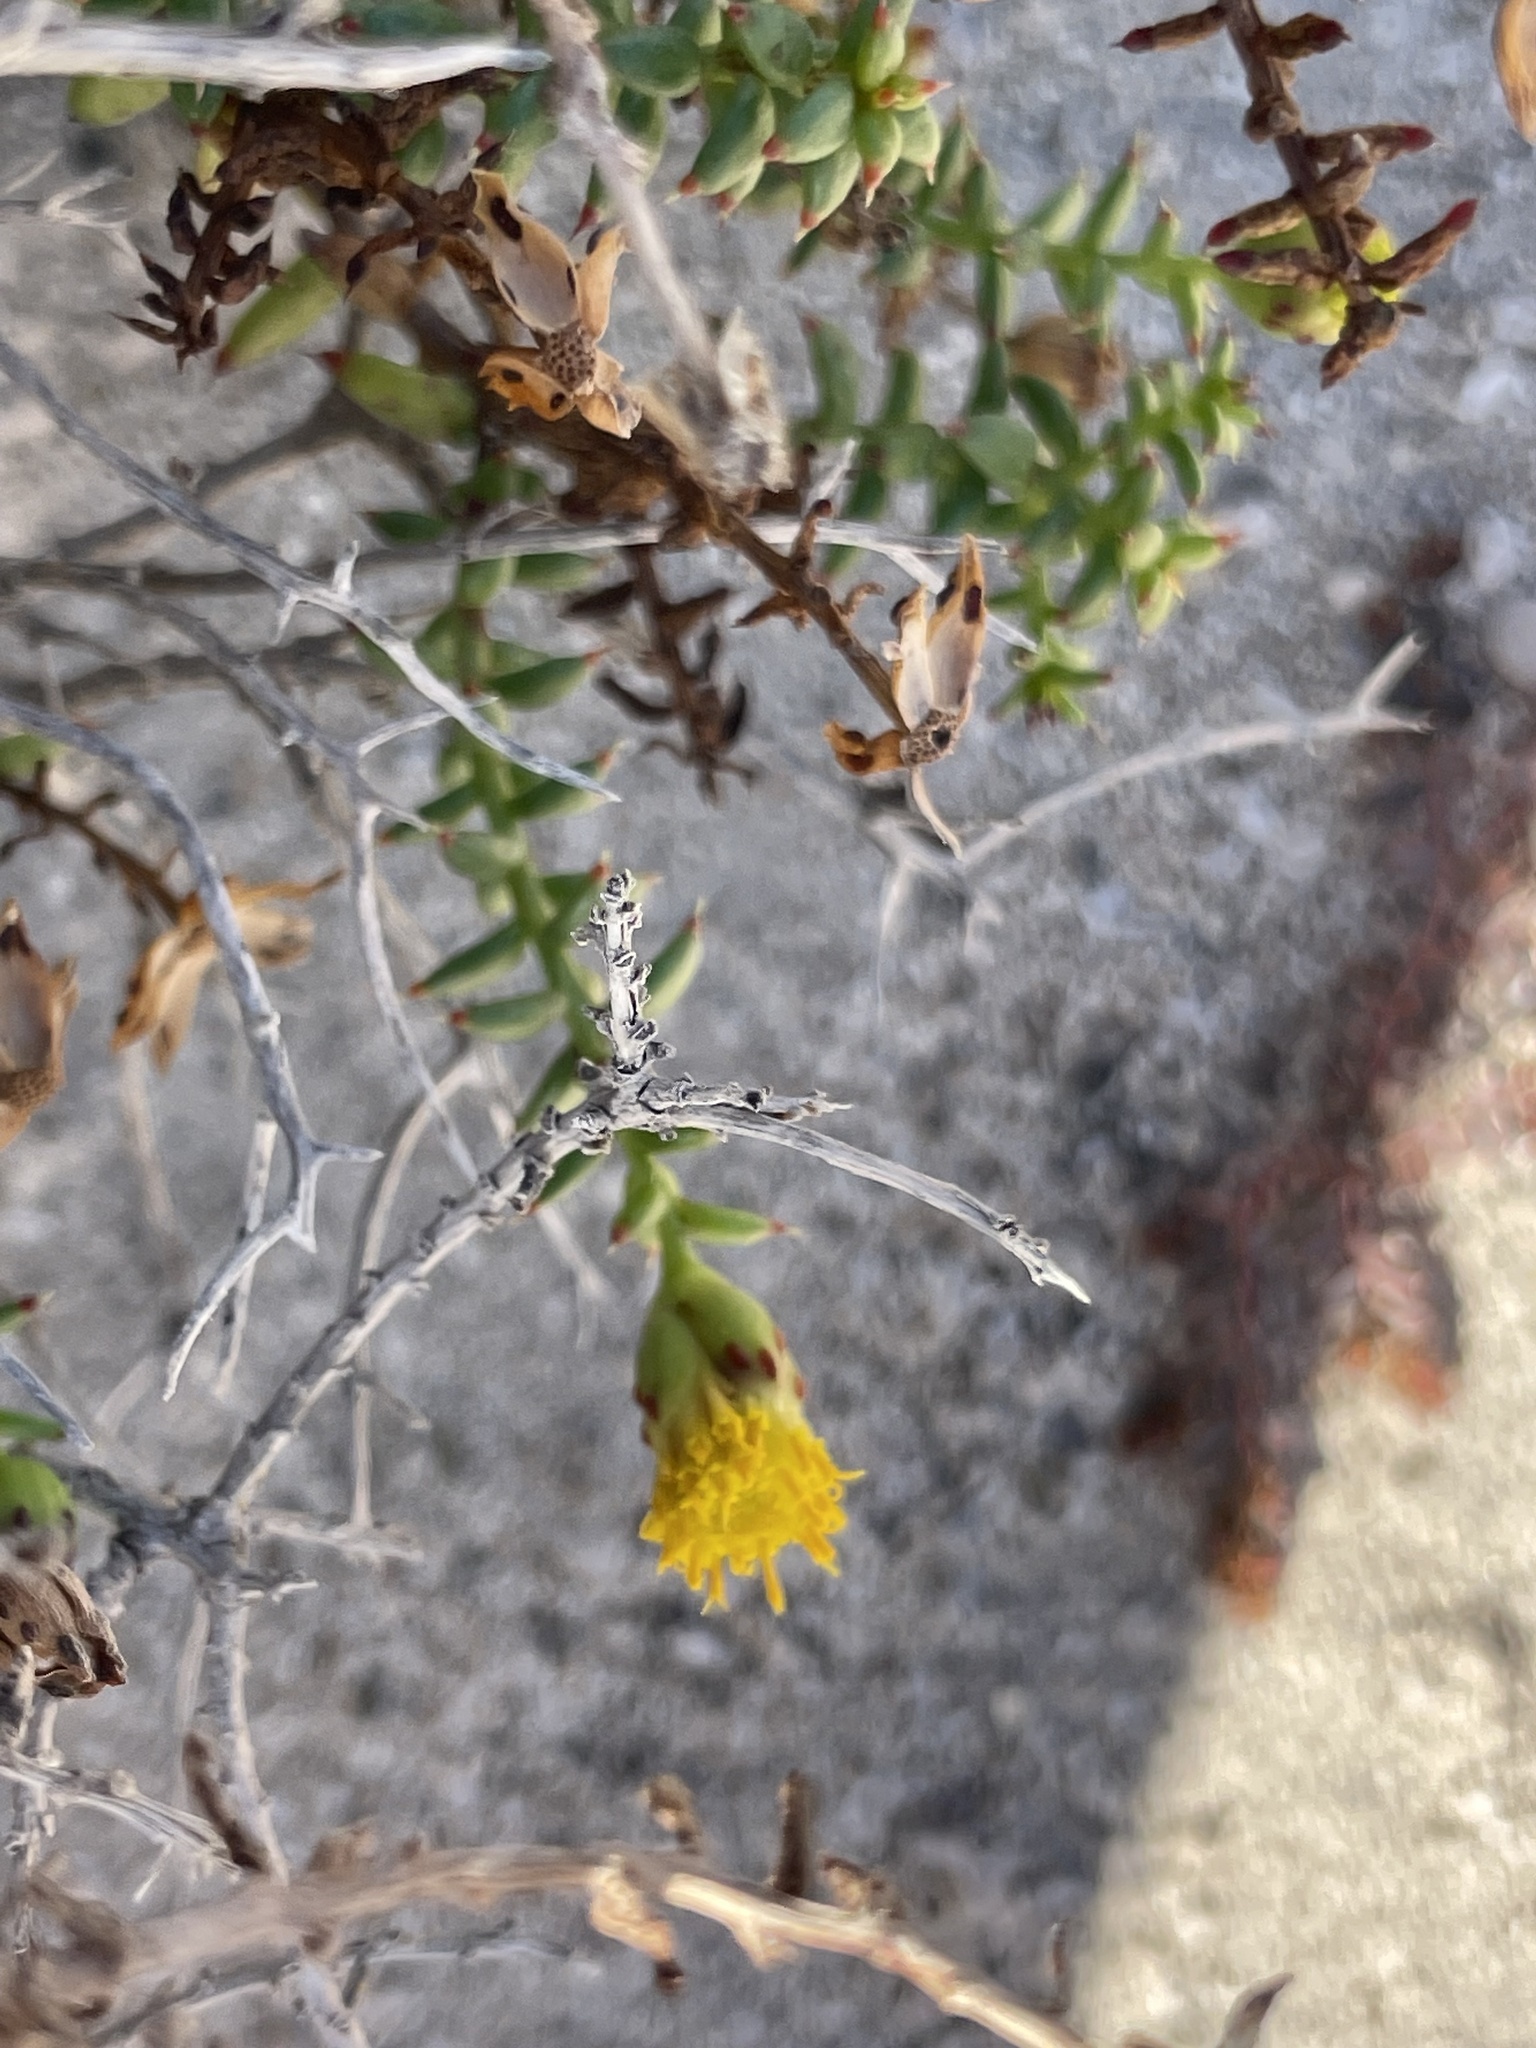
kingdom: Plantae
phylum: Tracheophyta
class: Magnoliopsida
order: Asterales
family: Asteraceae
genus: Bajacalia
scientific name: Bajacalia crassifolia
